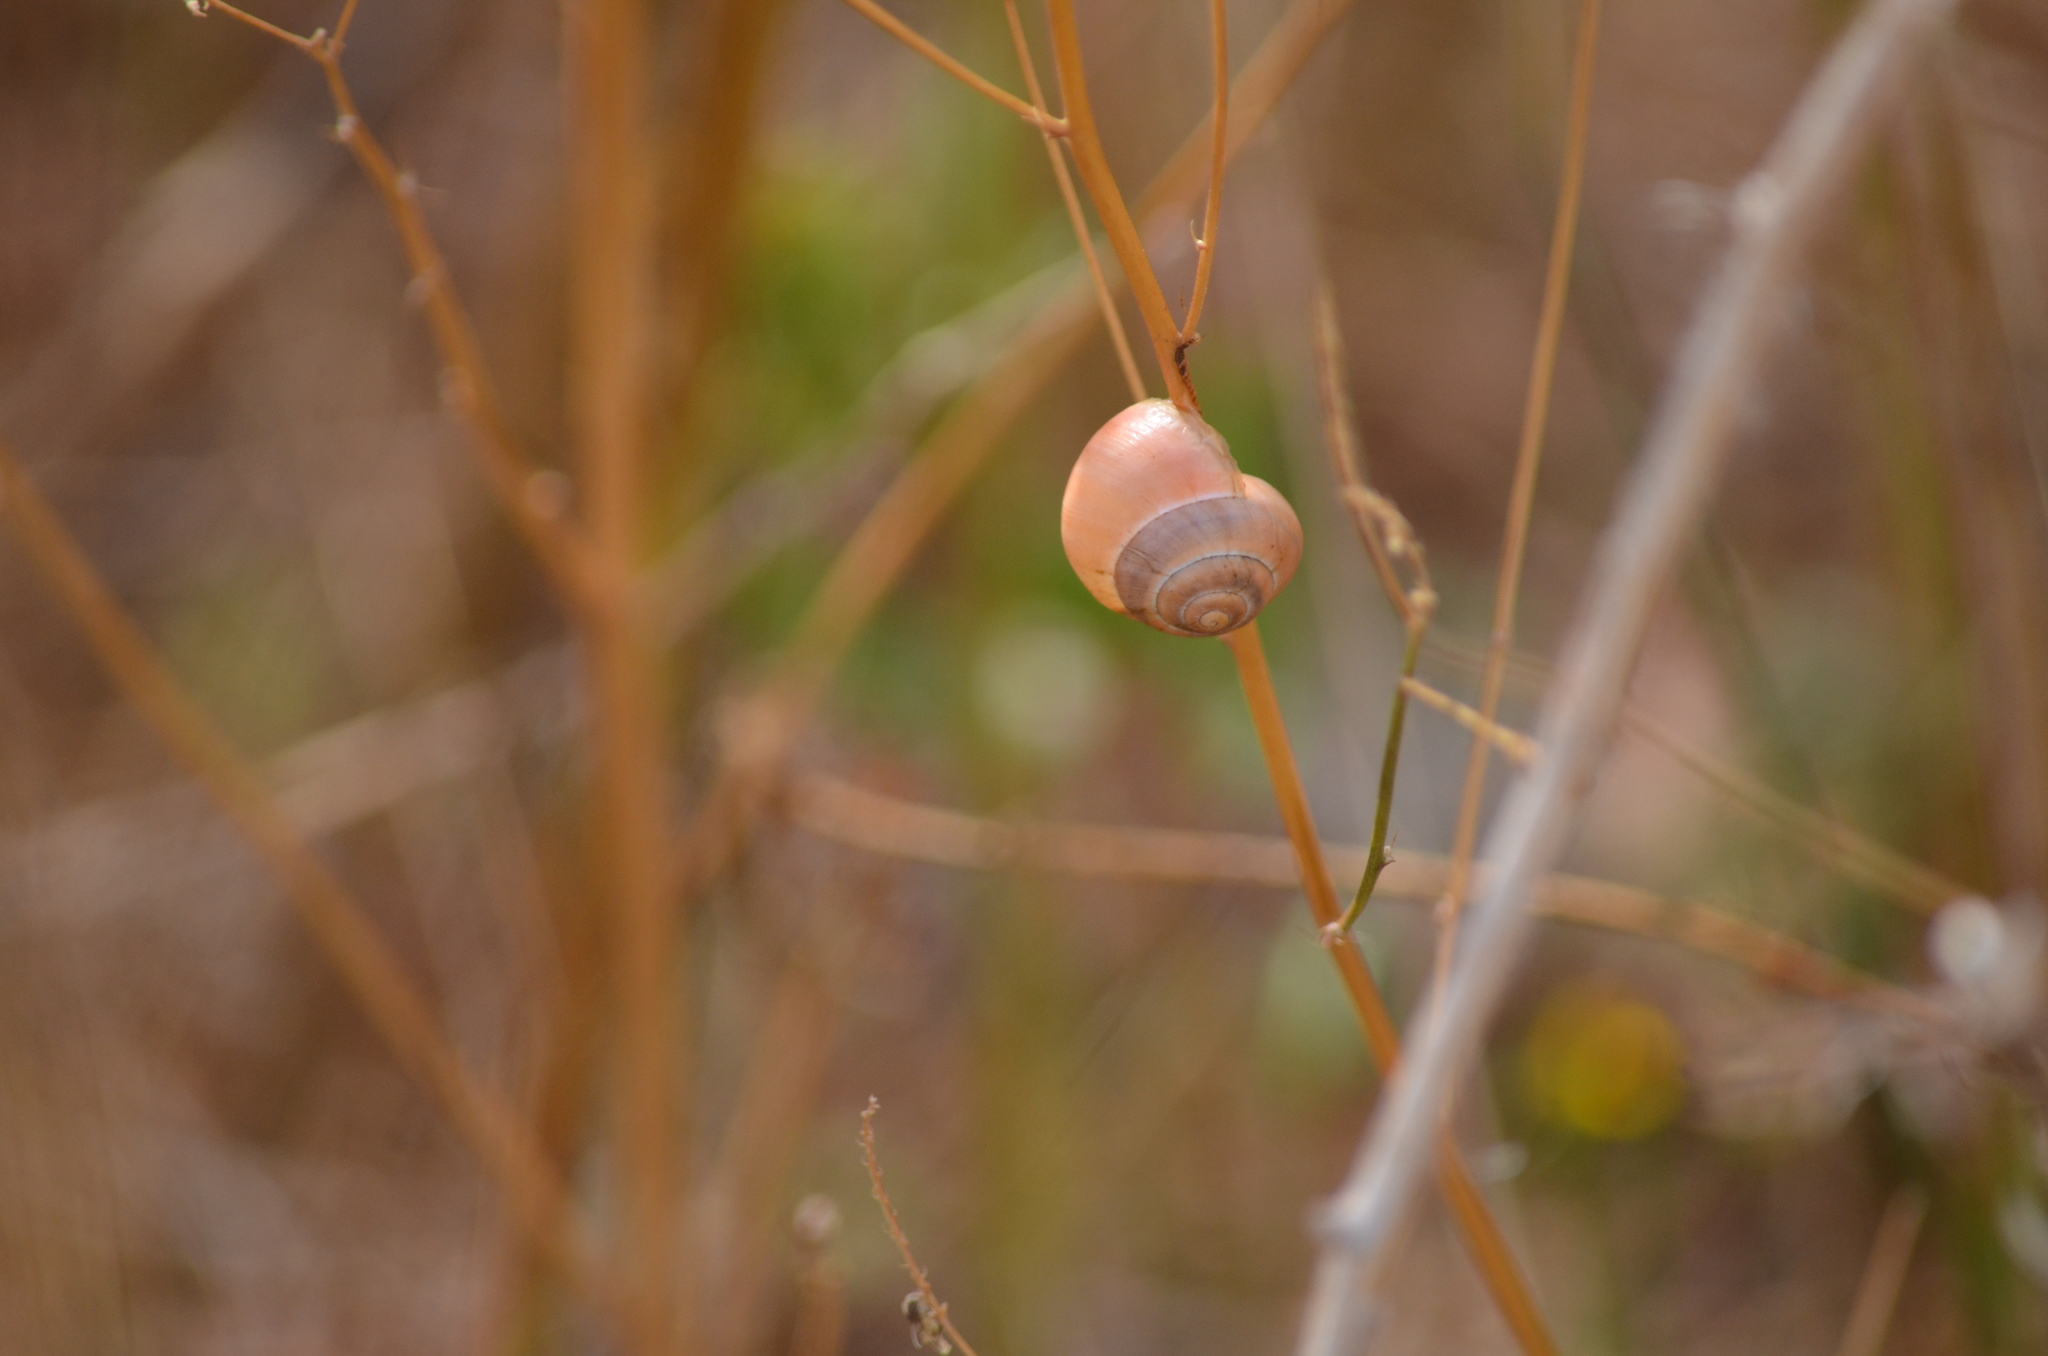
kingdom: Animalia
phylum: Mollusca
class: Gastropoda
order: Stylommatophora
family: Helicidae
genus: Cepaea
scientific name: Cepaea
